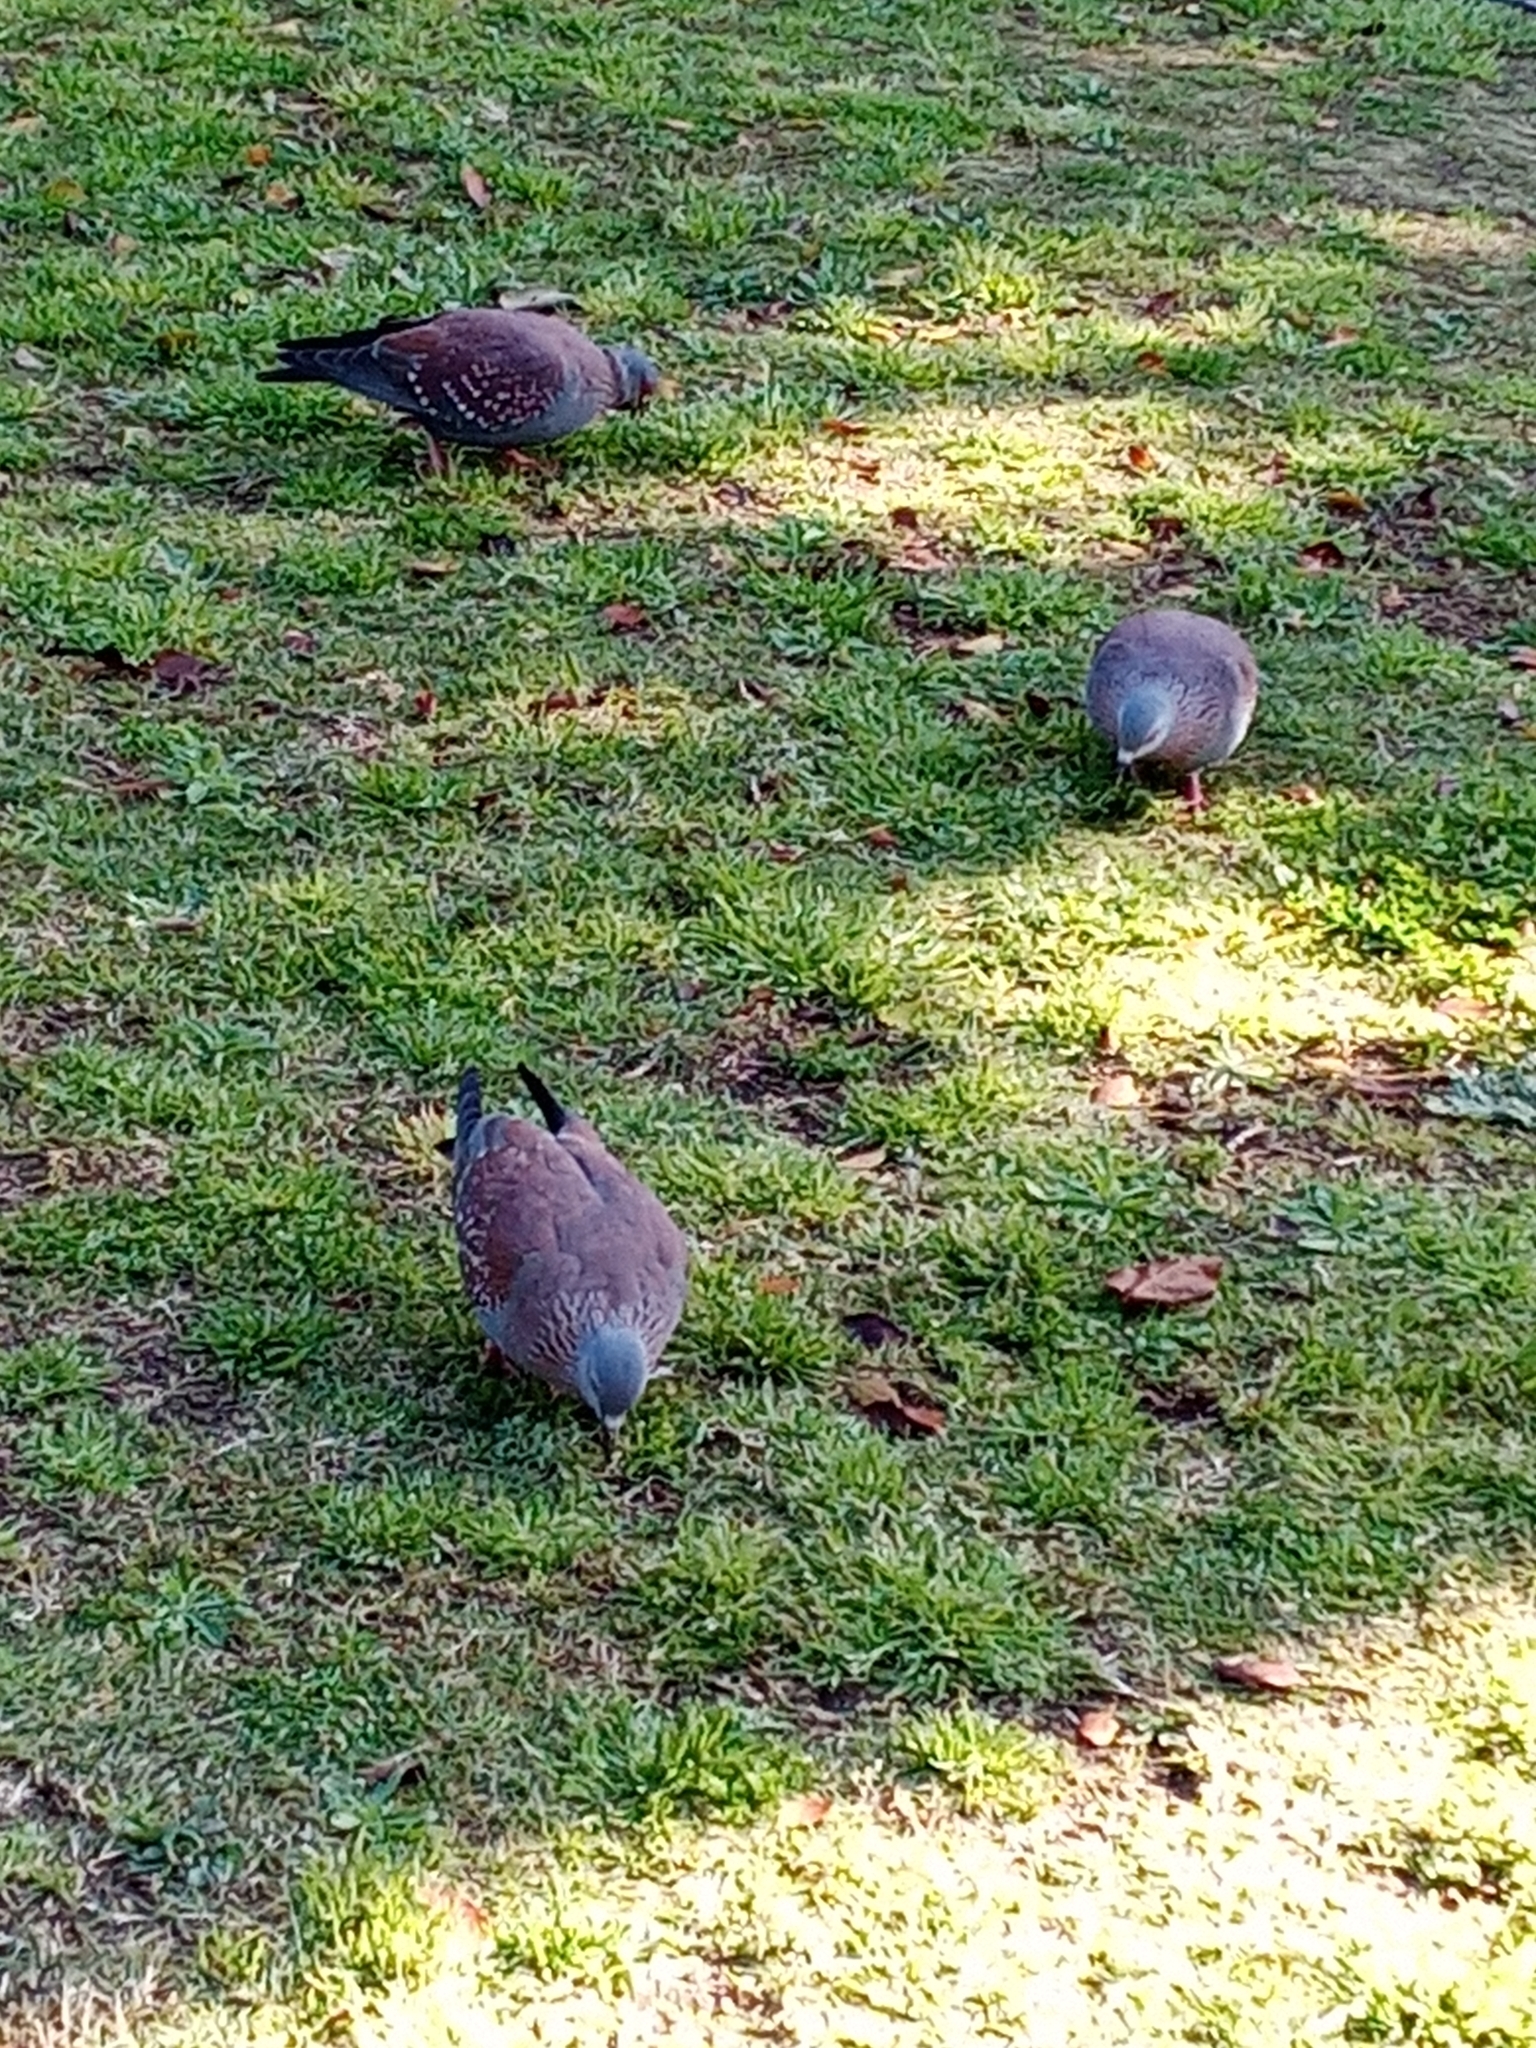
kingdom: Animalia
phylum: Chordata
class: Aves
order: Columbiformes
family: Columbidae
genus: Columba
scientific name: Columba guinea
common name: Speckled pigeon
